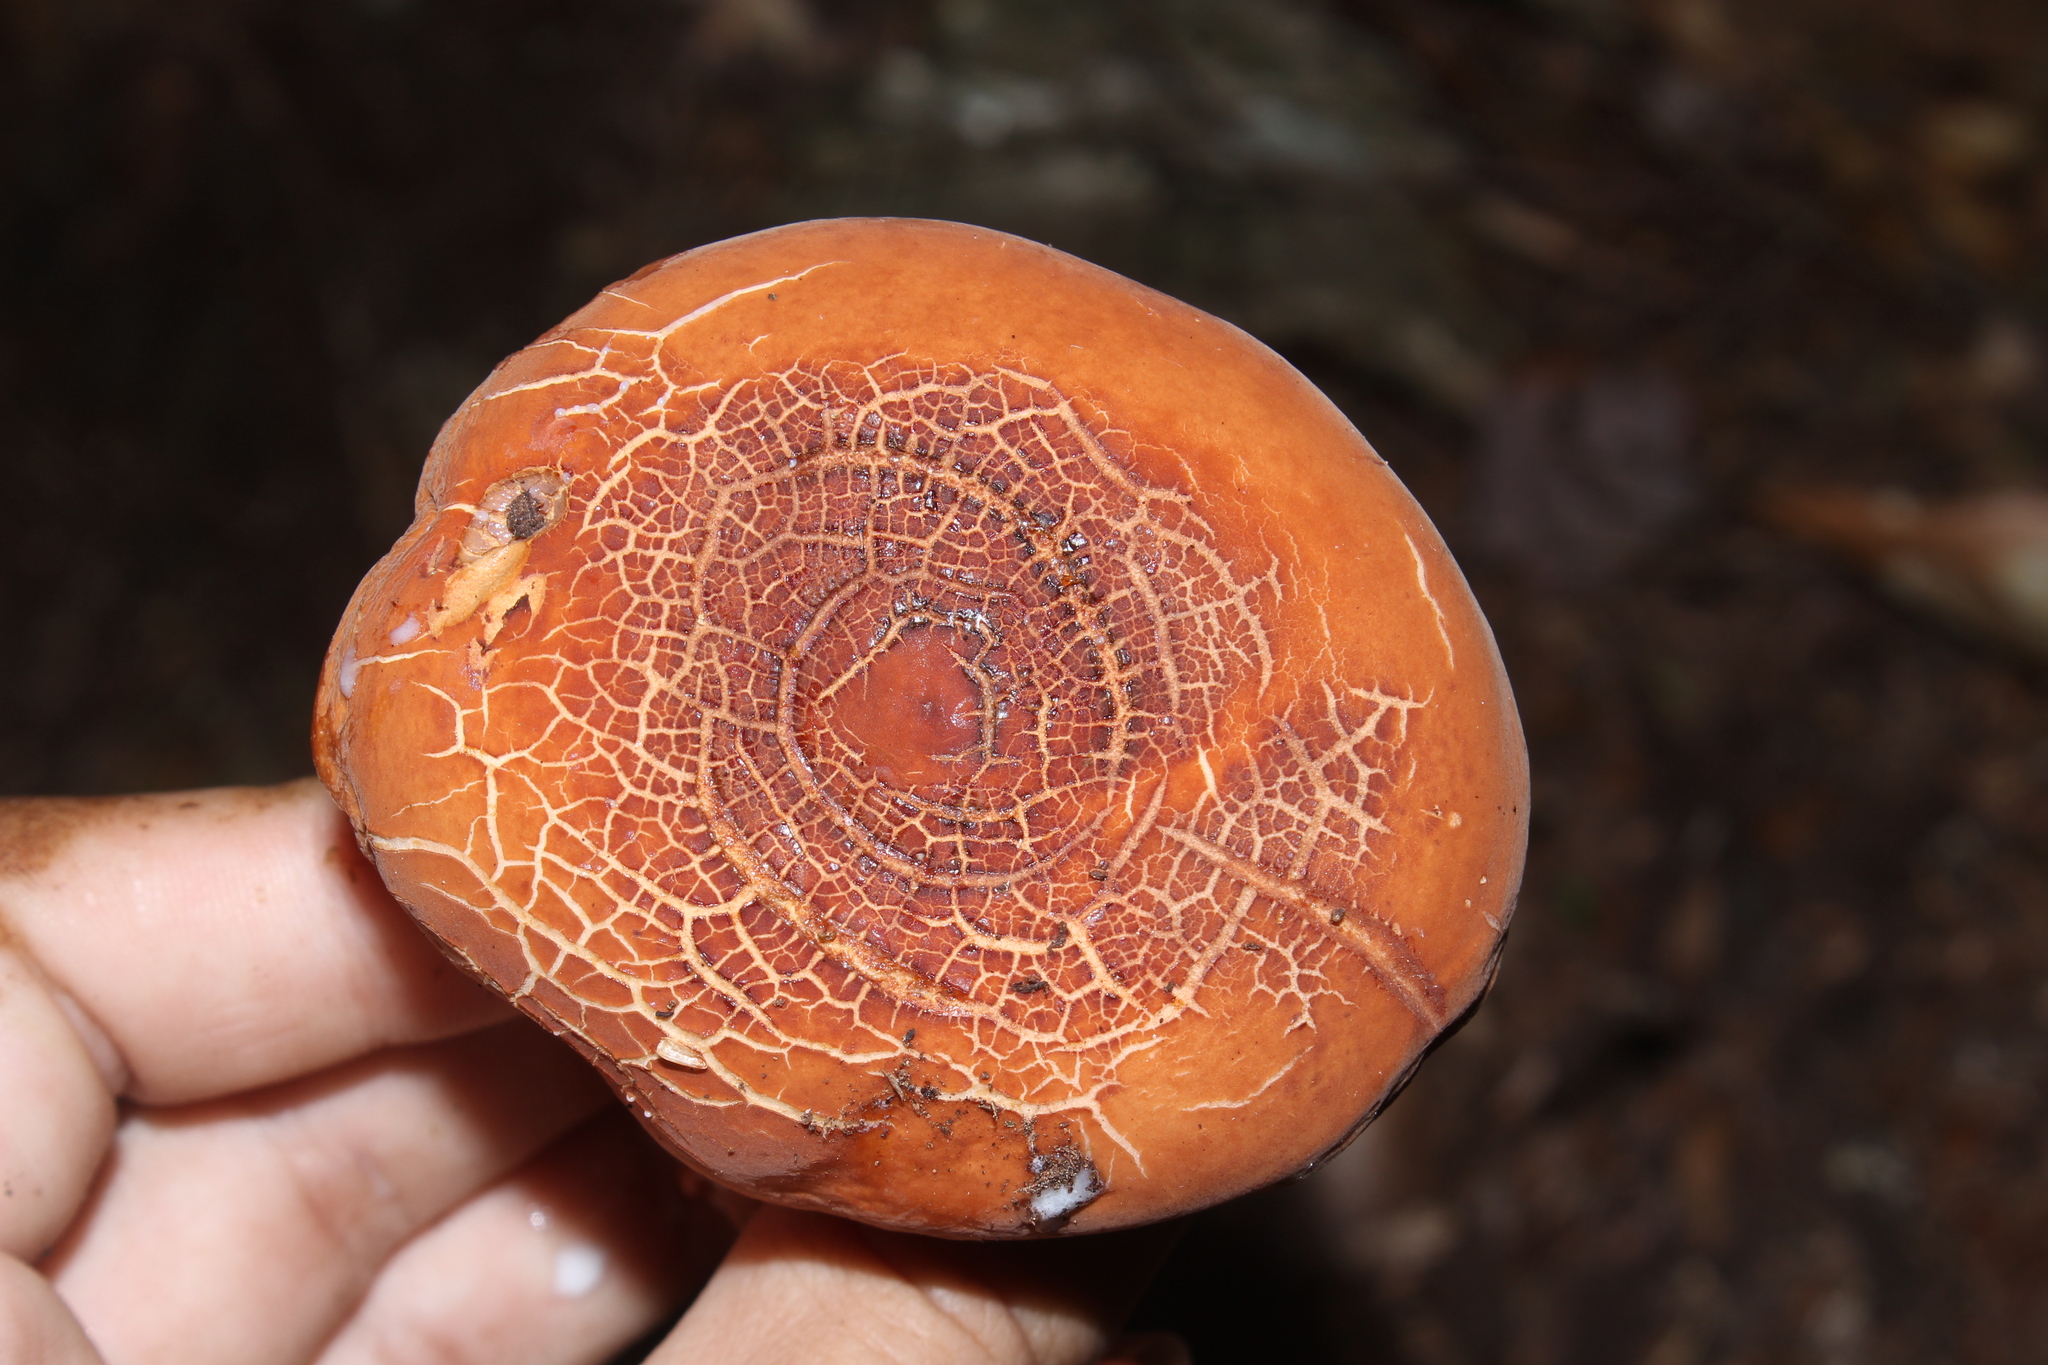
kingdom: Fungi
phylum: Basidiomycota
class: Agaricomycetes
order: Russulales
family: Russulaceae
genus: Lactifluus
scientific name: Lactifluus volemus
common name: Fishy milkcap
